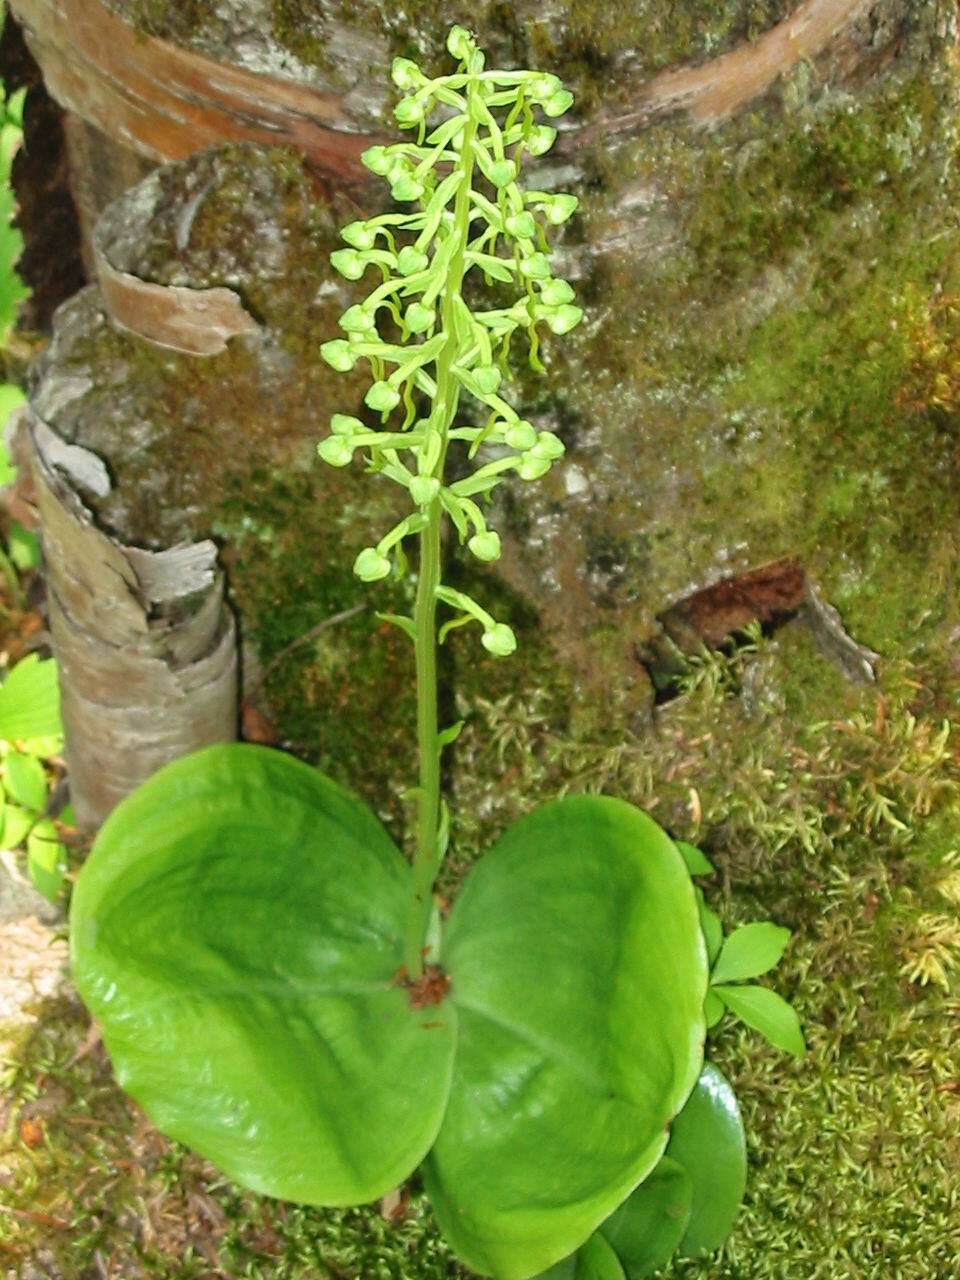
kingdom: Plantae
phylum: Tracheophyta
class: Liliopsida
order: Asparagales
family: Orchidaceae
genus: Platanthera
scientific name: Platanthera orbiculata
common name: Large round-leaved orchid
